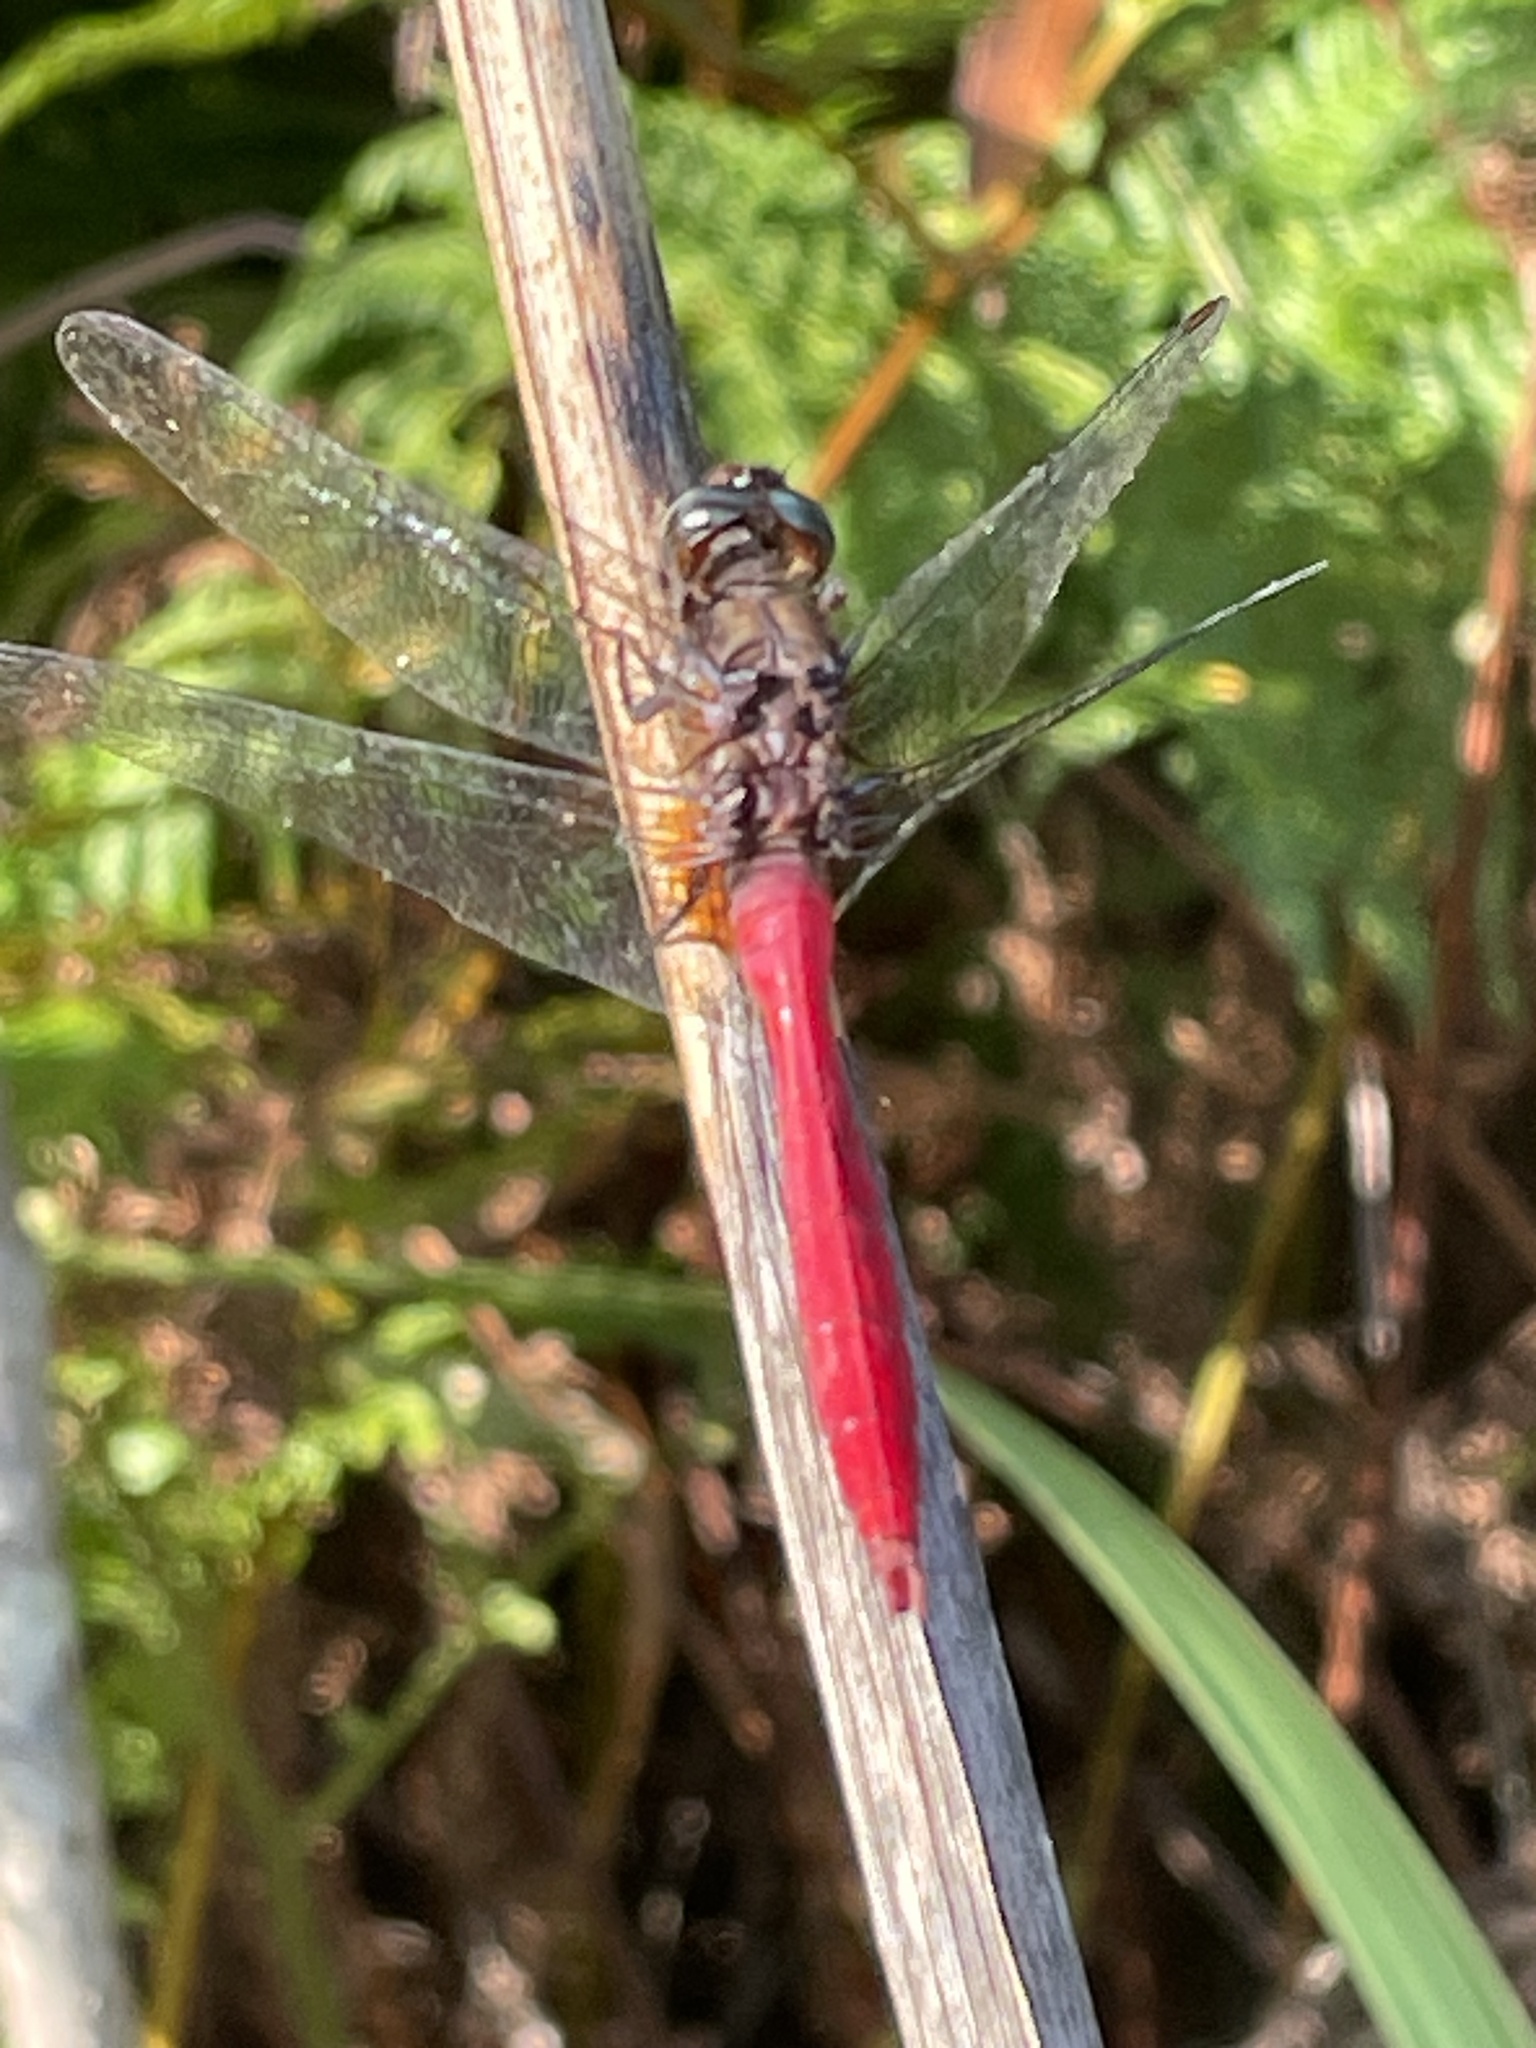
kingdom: Animalia
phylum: Arthropoda
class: Insecta
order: Odonata
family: Libellulidae
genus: Diplacodes
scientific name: Diplacodes haematodes
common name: Scarlet percher
